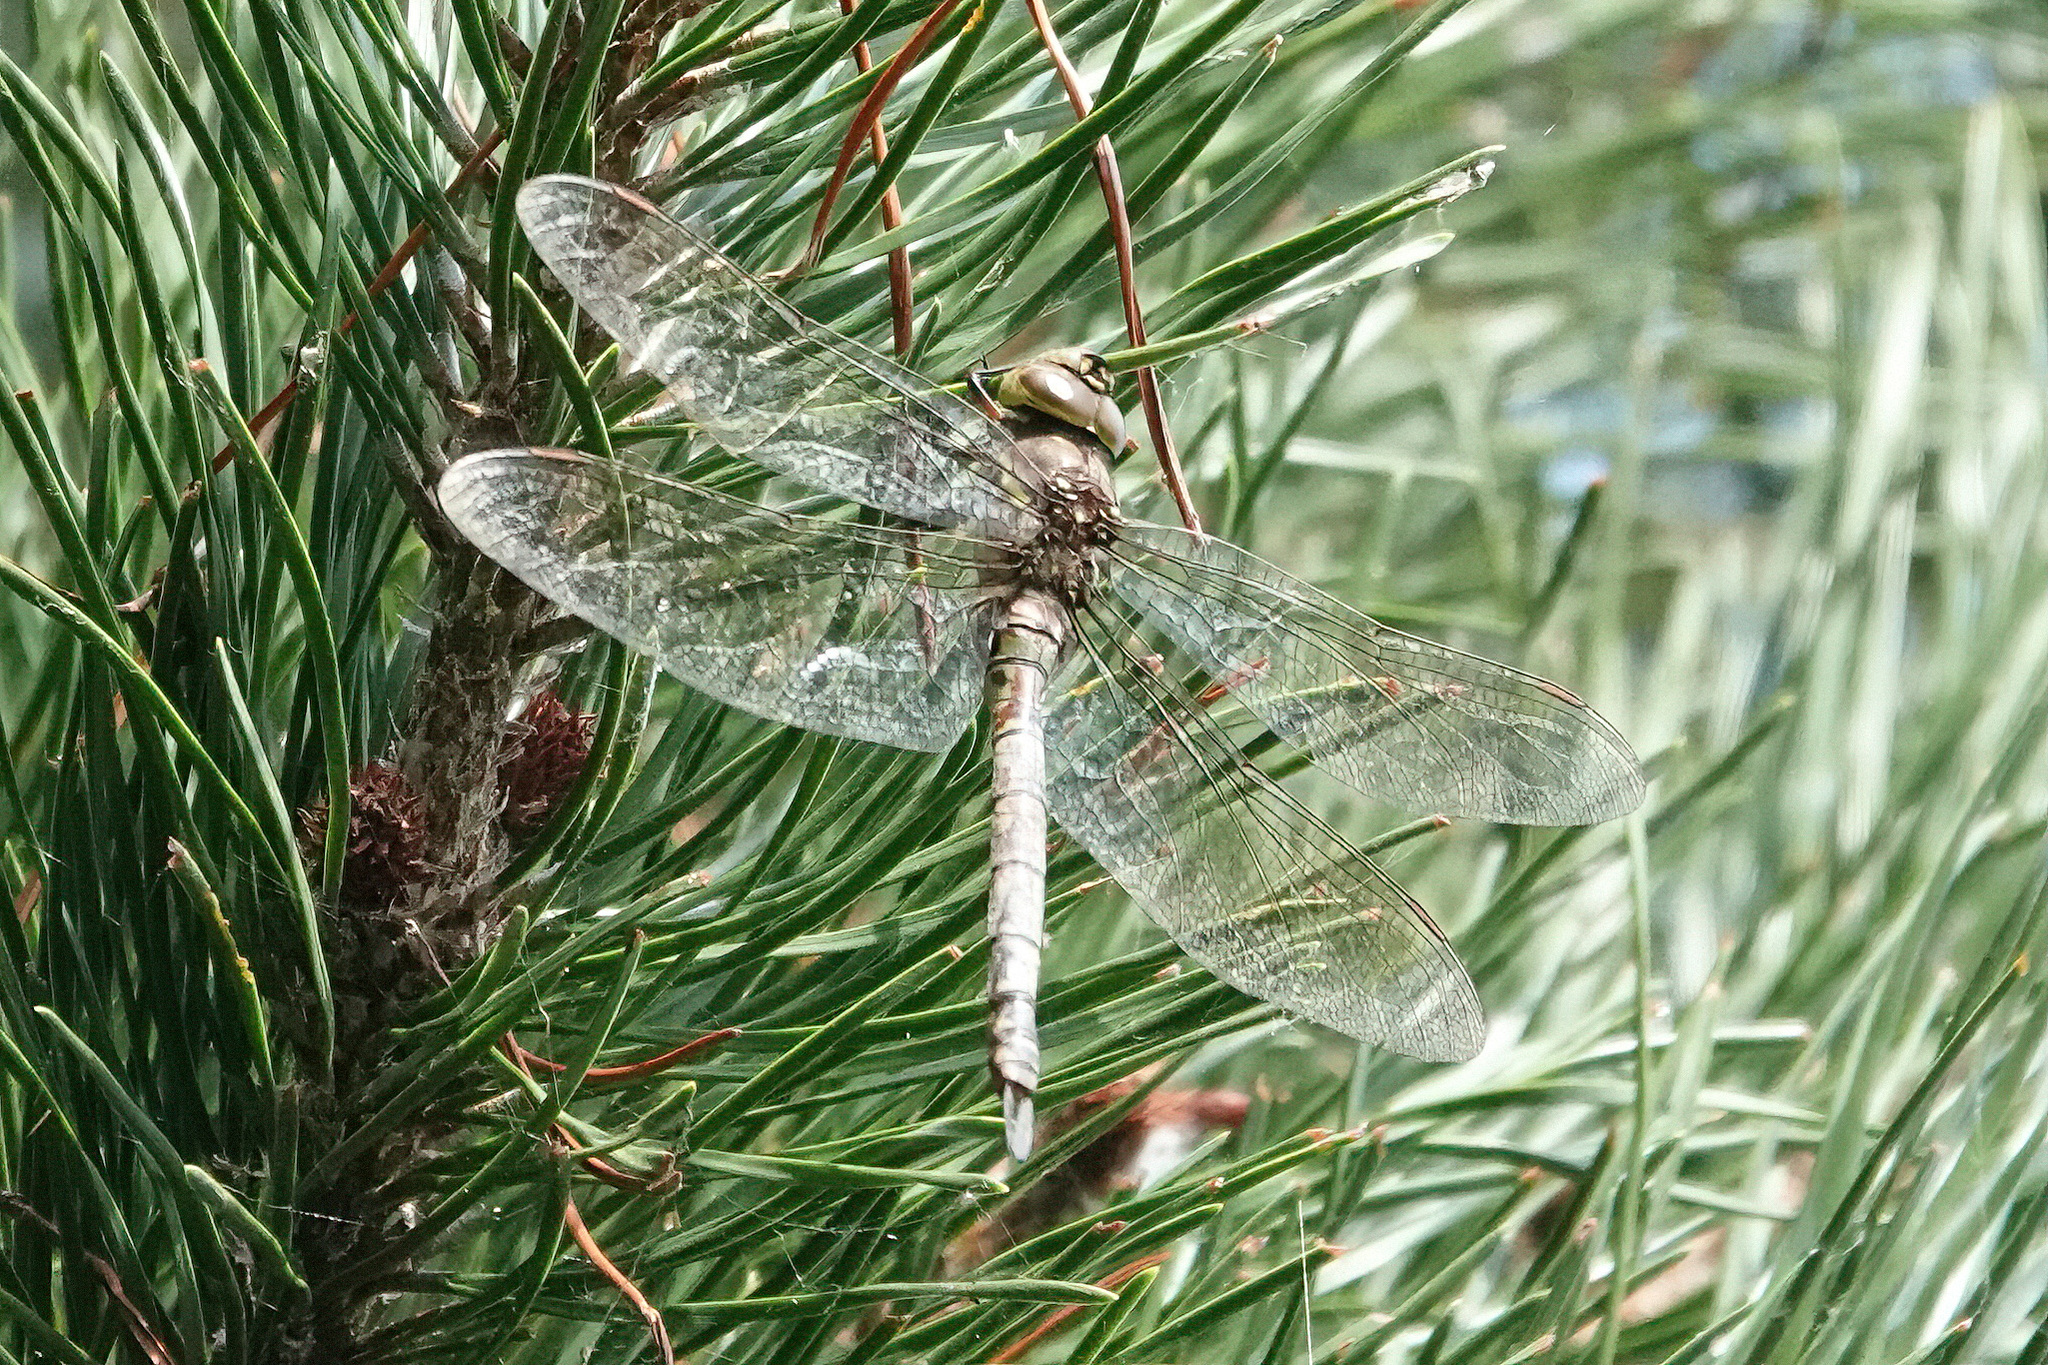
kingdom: Animalia
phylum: Arthropoda
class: Insecta
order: Odonata
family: Aeshnidae
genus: Rhionaeschna
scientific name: Rhionaeschna multicolor
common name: Blue-eyed darner
